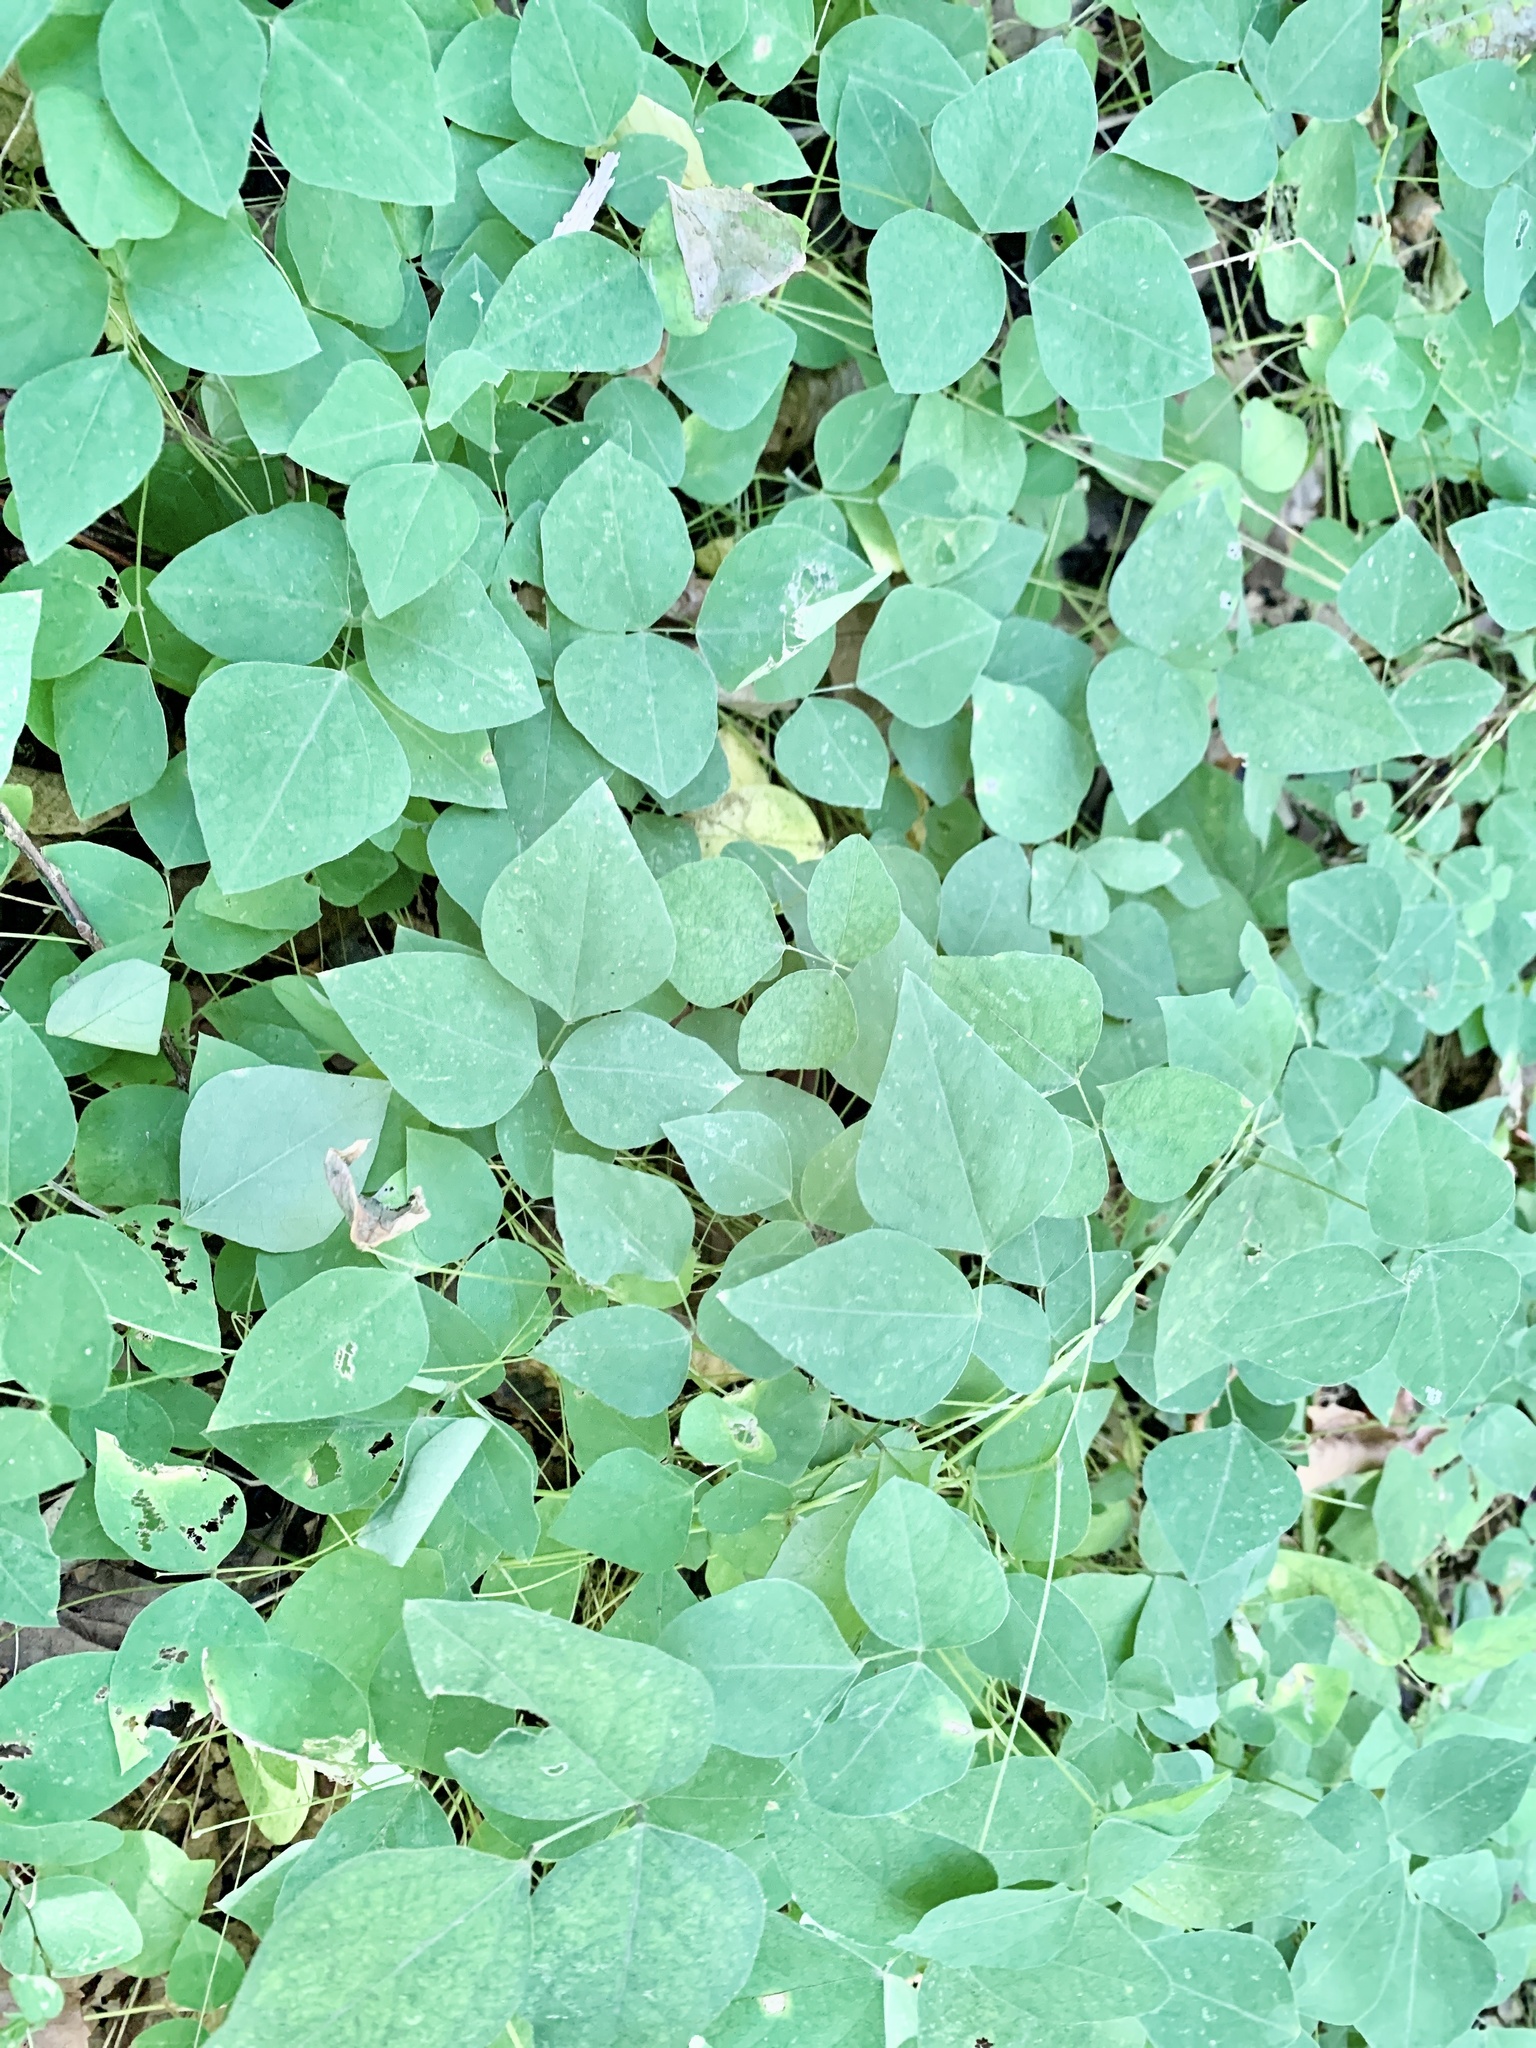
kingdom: Plantae
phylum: Tracheophyta
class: Magnoliopsida
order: Fabales
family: Fabaceae
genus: Amphicarpaea
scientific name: Amphicarpaea bracteata
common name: American hog peanut
